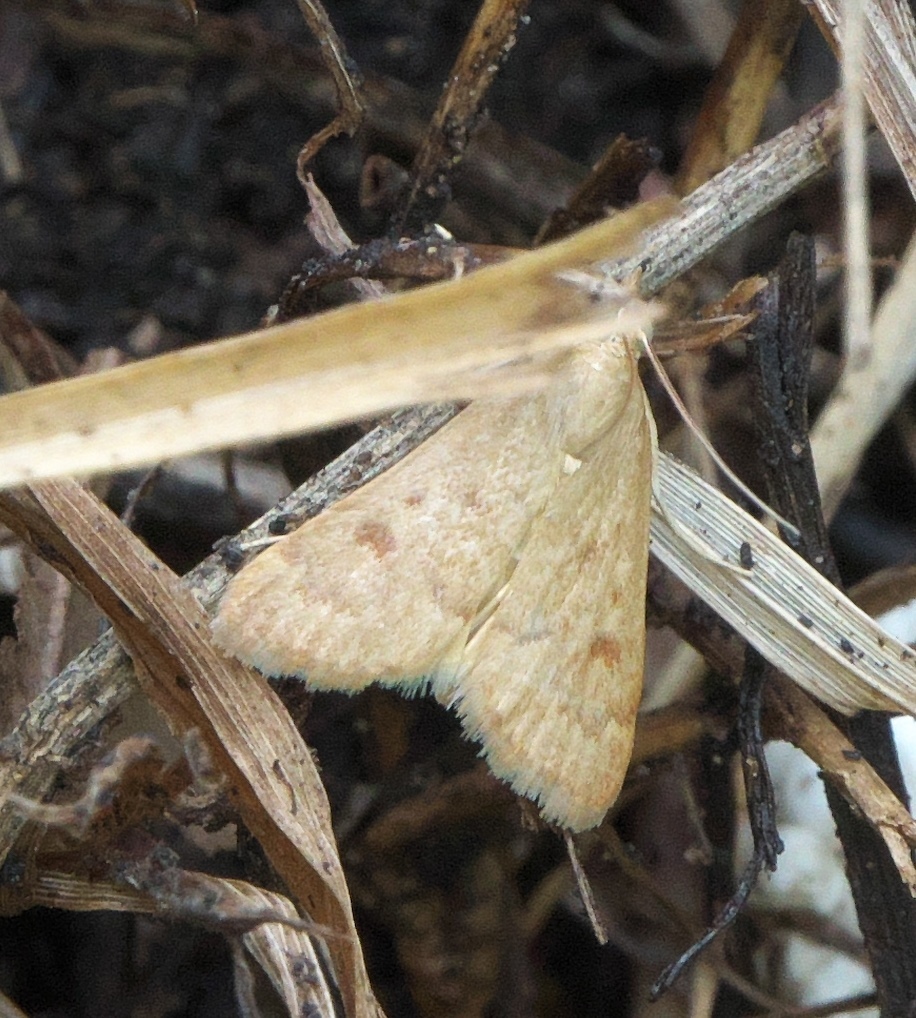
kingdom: Animalia
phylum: Arthropoda
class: Insecta
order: Lepidoptera
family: Crambidae
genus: Achyra
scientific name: Achyra rantalis
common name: Garden webworm
